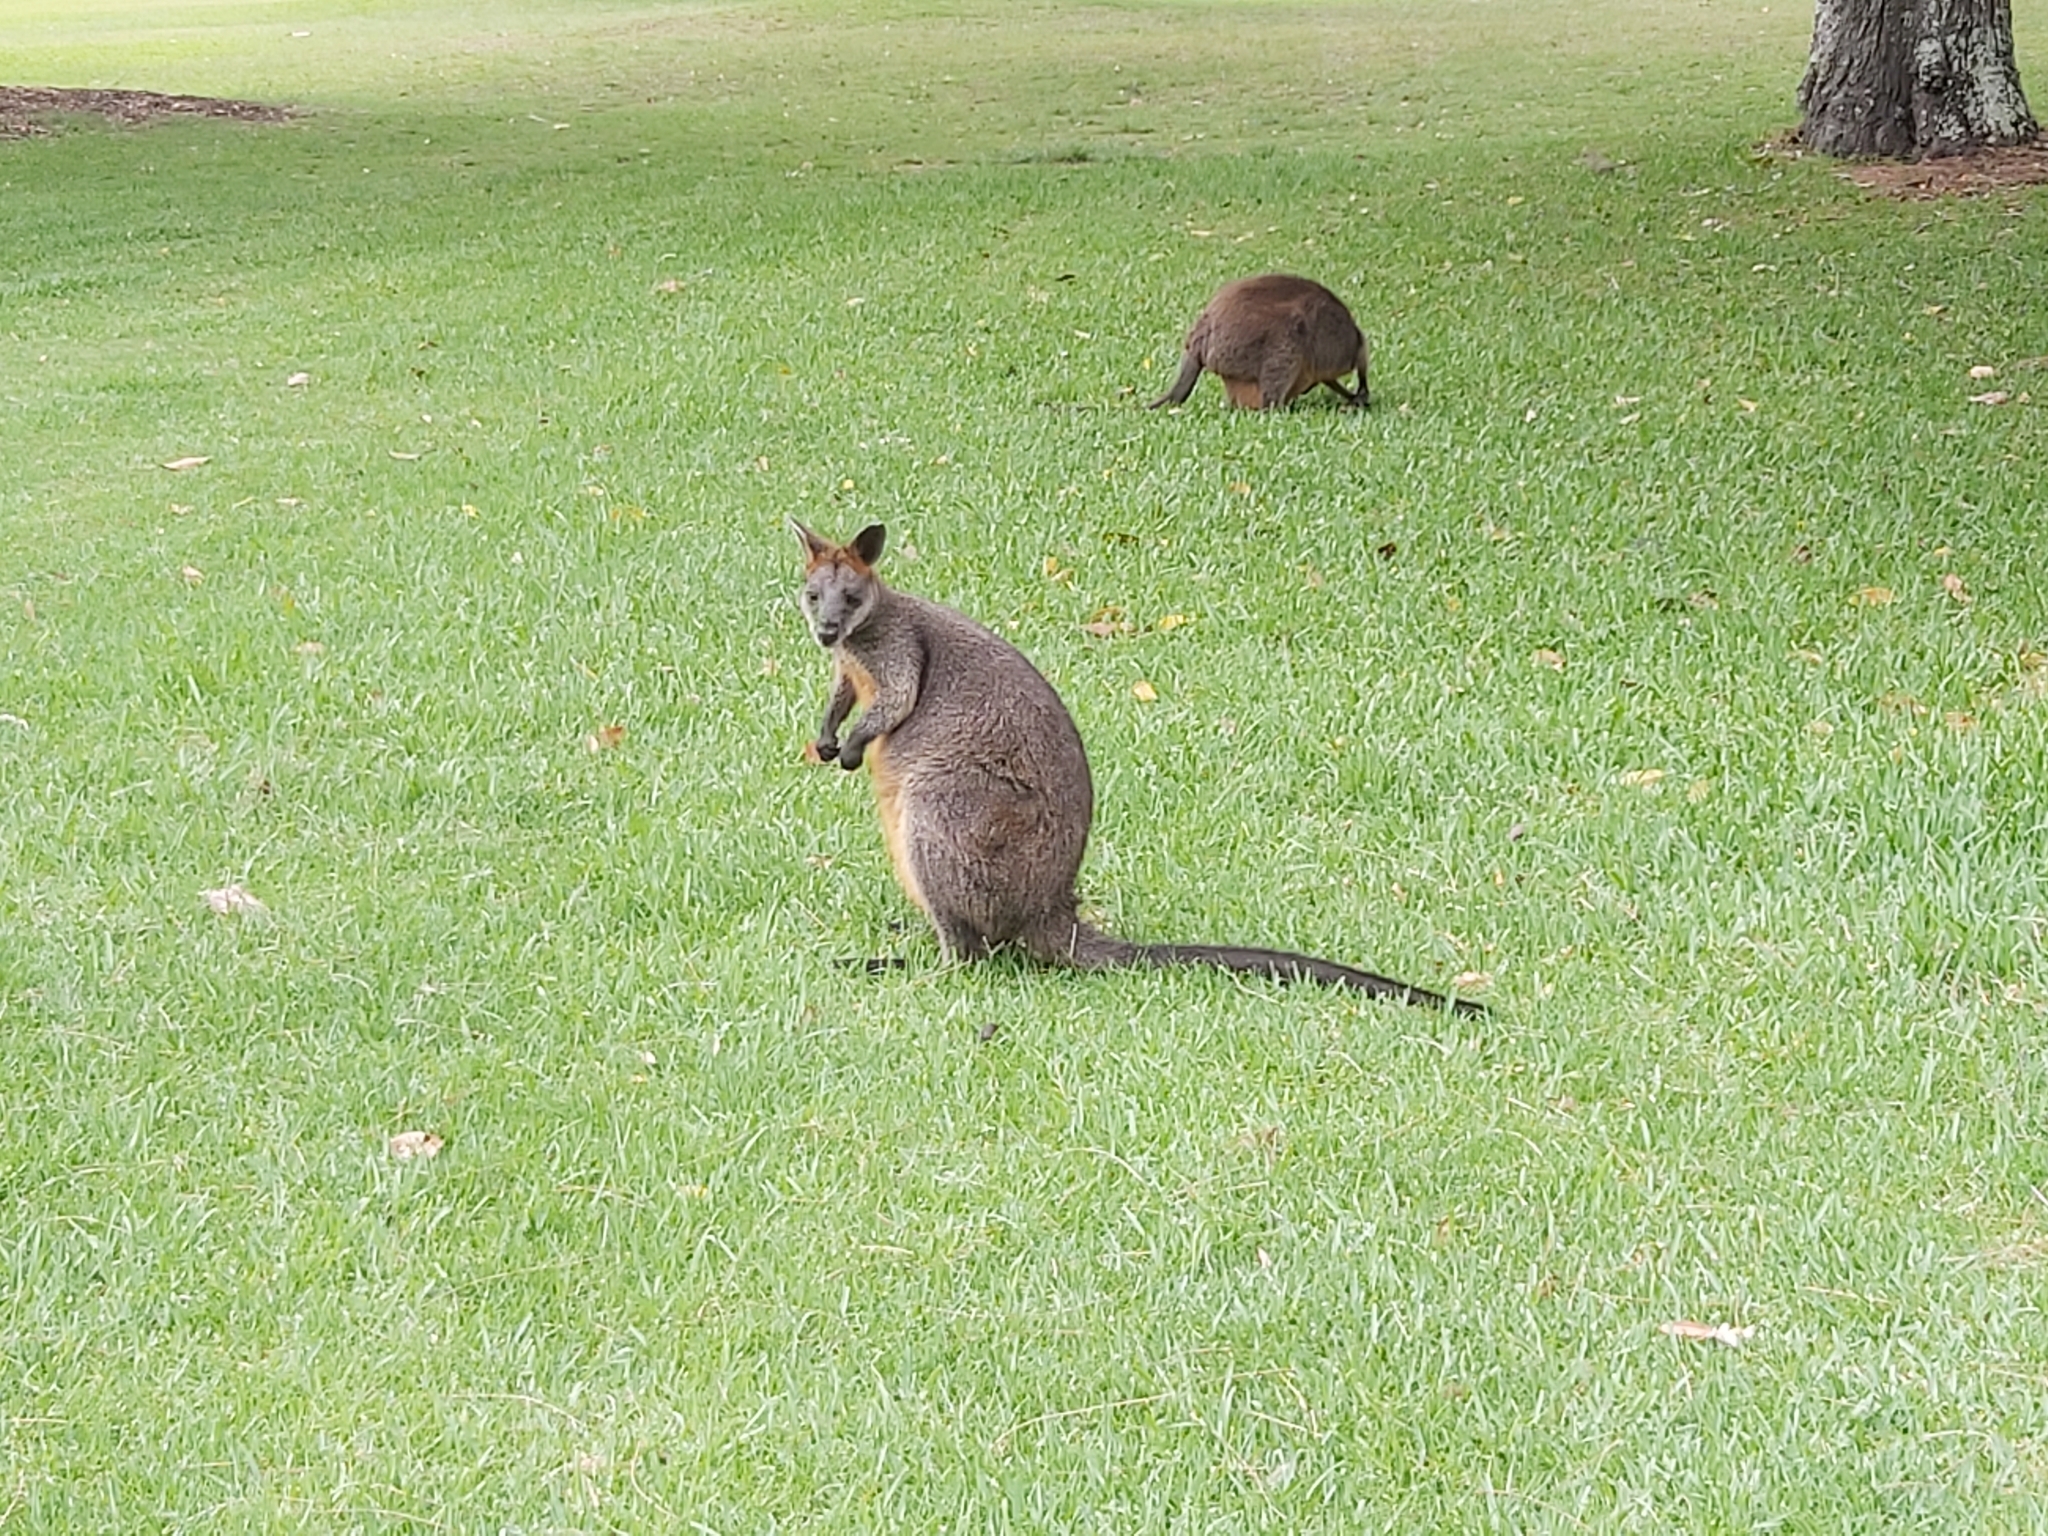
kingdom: Animalia
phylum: Chordata
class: Mammalia
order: Diprotodontia
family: Macropodidae
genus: Wallabia
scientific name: Wallabia bicolor
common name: Swamp wallaby
